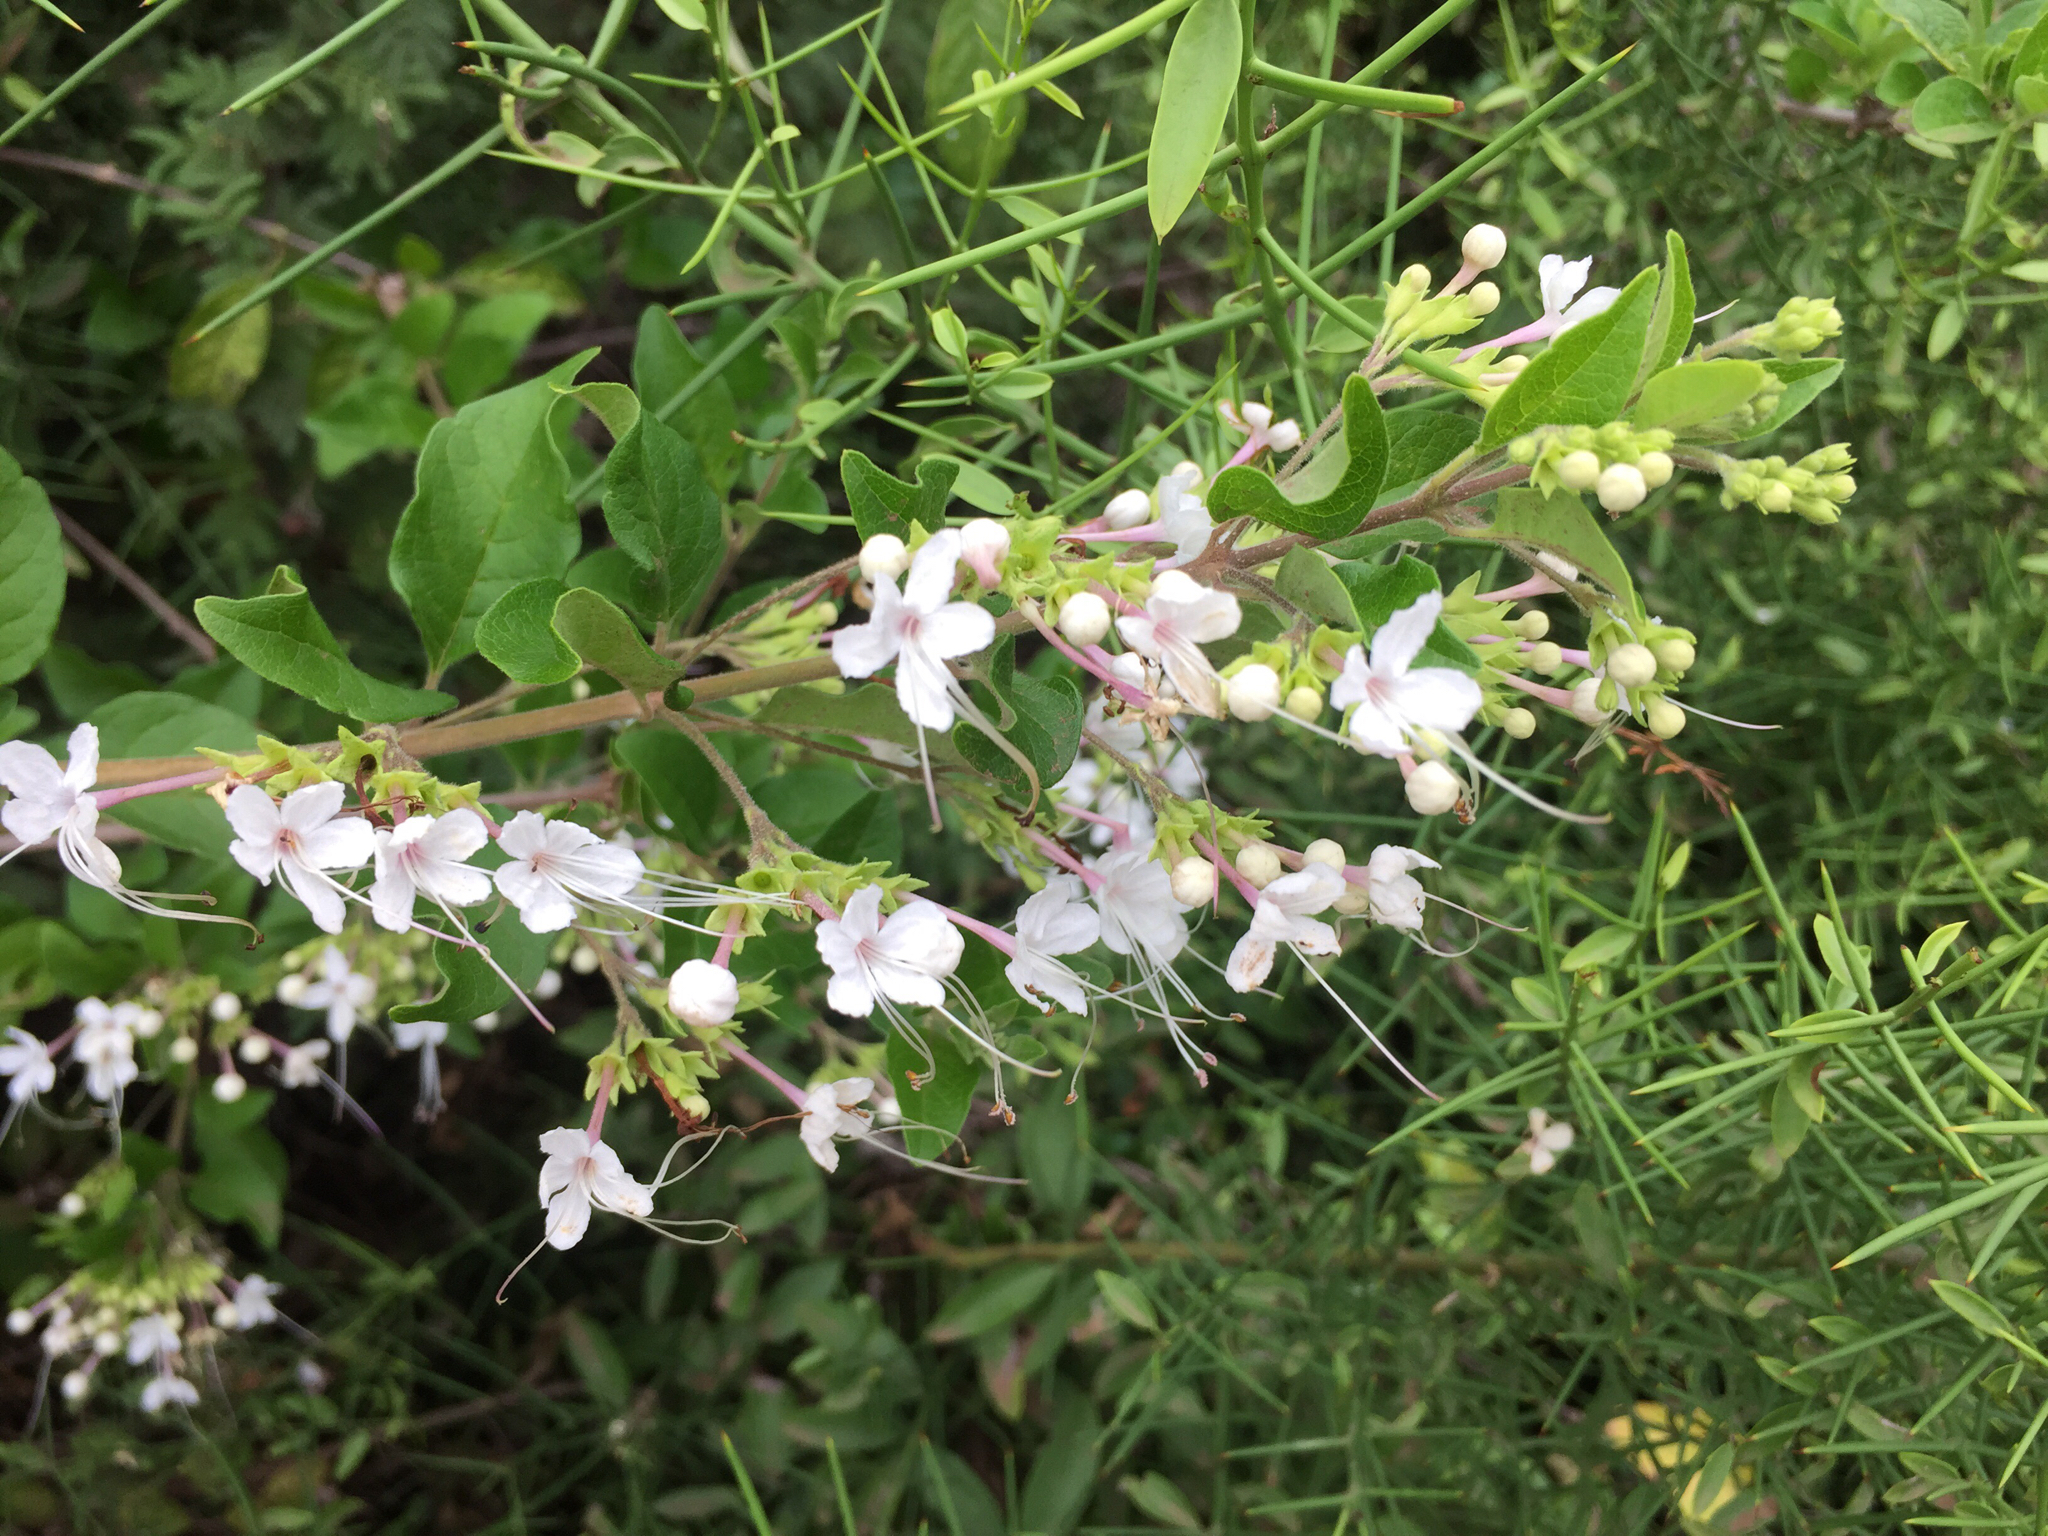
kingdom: Plantae
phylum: Tracheophyta
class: Magnoliopsida
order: Lamiales
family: Lamiaceae
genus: Volkameria
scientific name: Volkameria mollis
